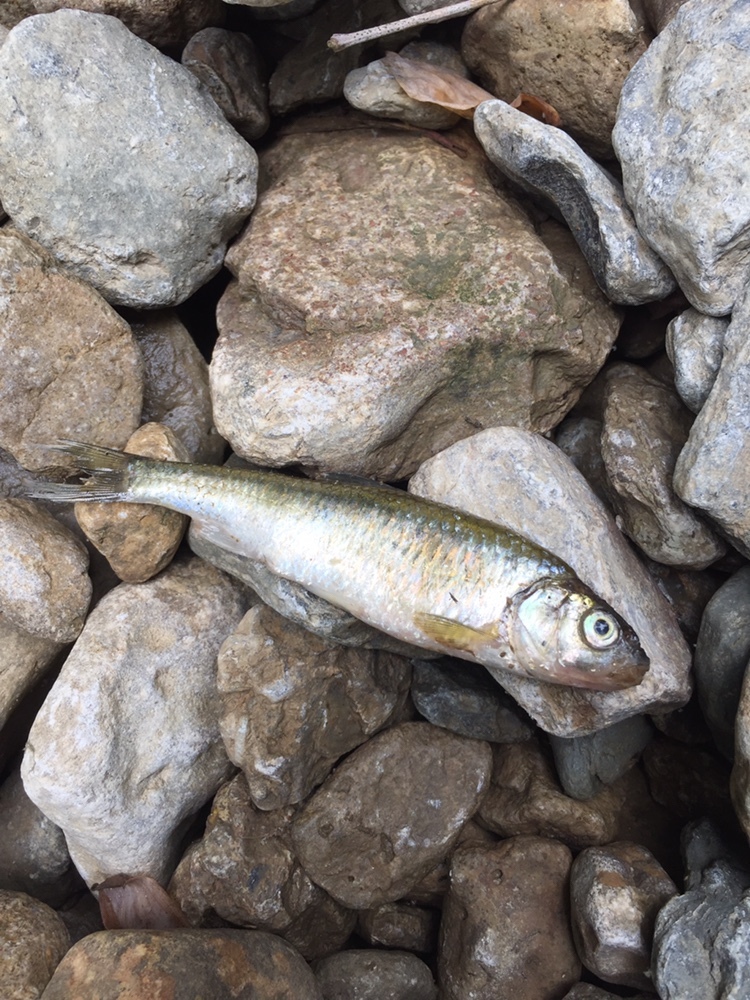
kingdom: Animalia
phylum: Chordata
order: Cypriniformes
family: Cyprinidae
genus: Luxilus
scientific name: Luxilus chrysocephalus
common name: Striped shiner
